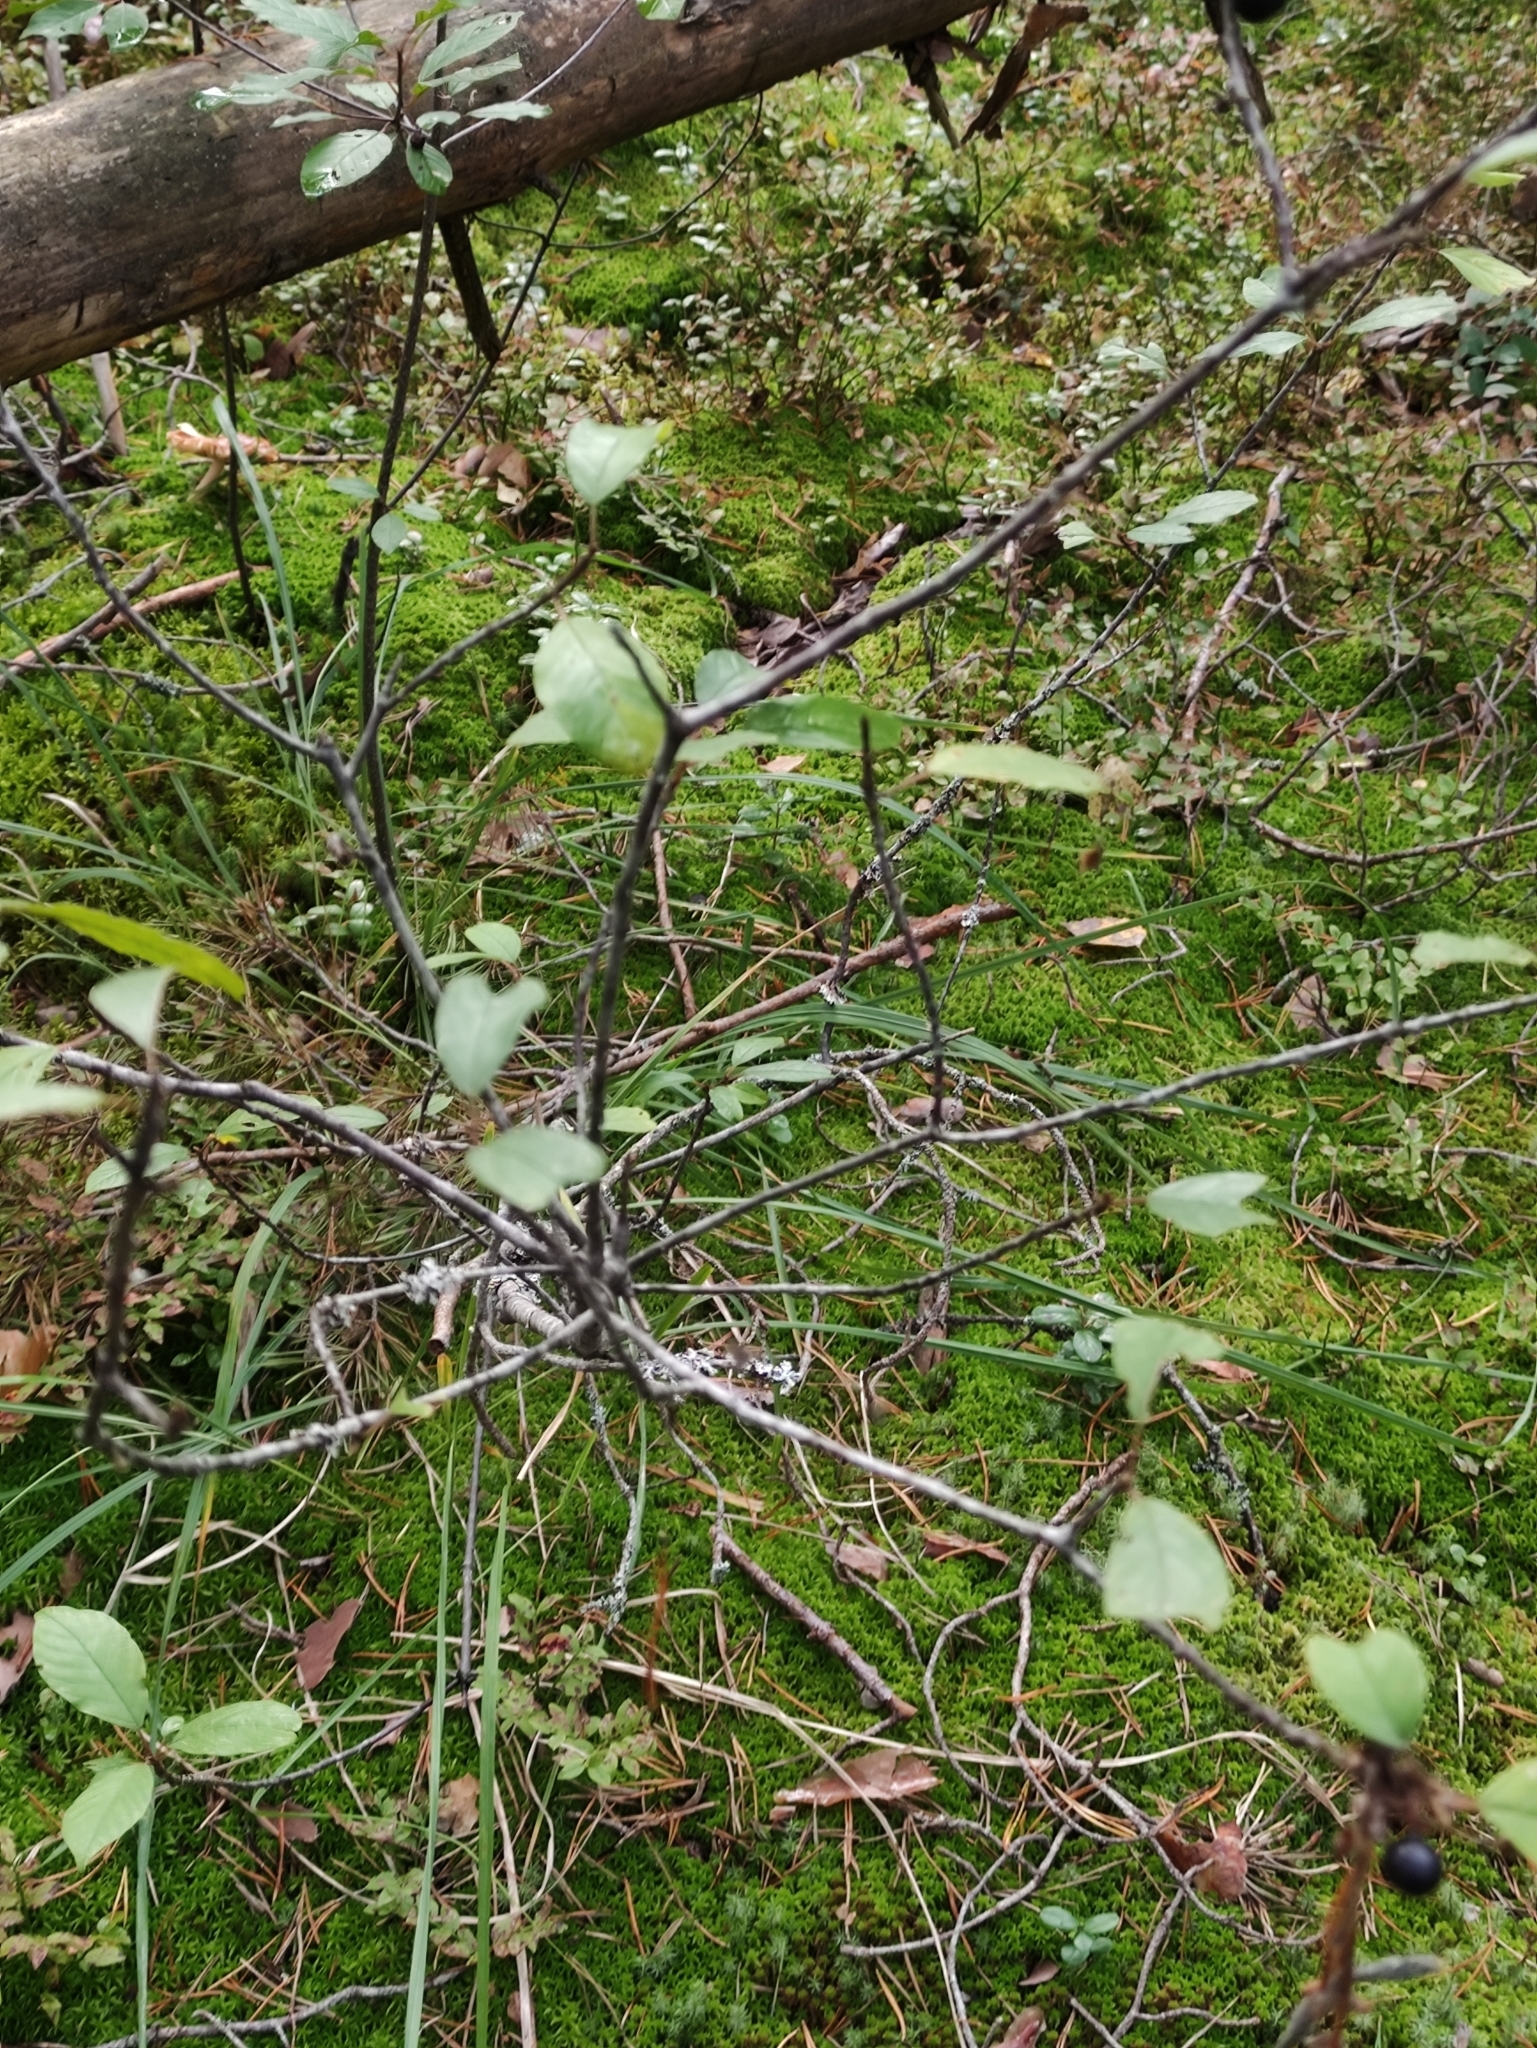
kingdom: Plantae
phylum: Tracheophyta
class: Magnoliopsida
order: Rosales
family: Rhamnaceae
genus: Frangula
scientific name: Frangula alnus
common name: Alder buckthorn
